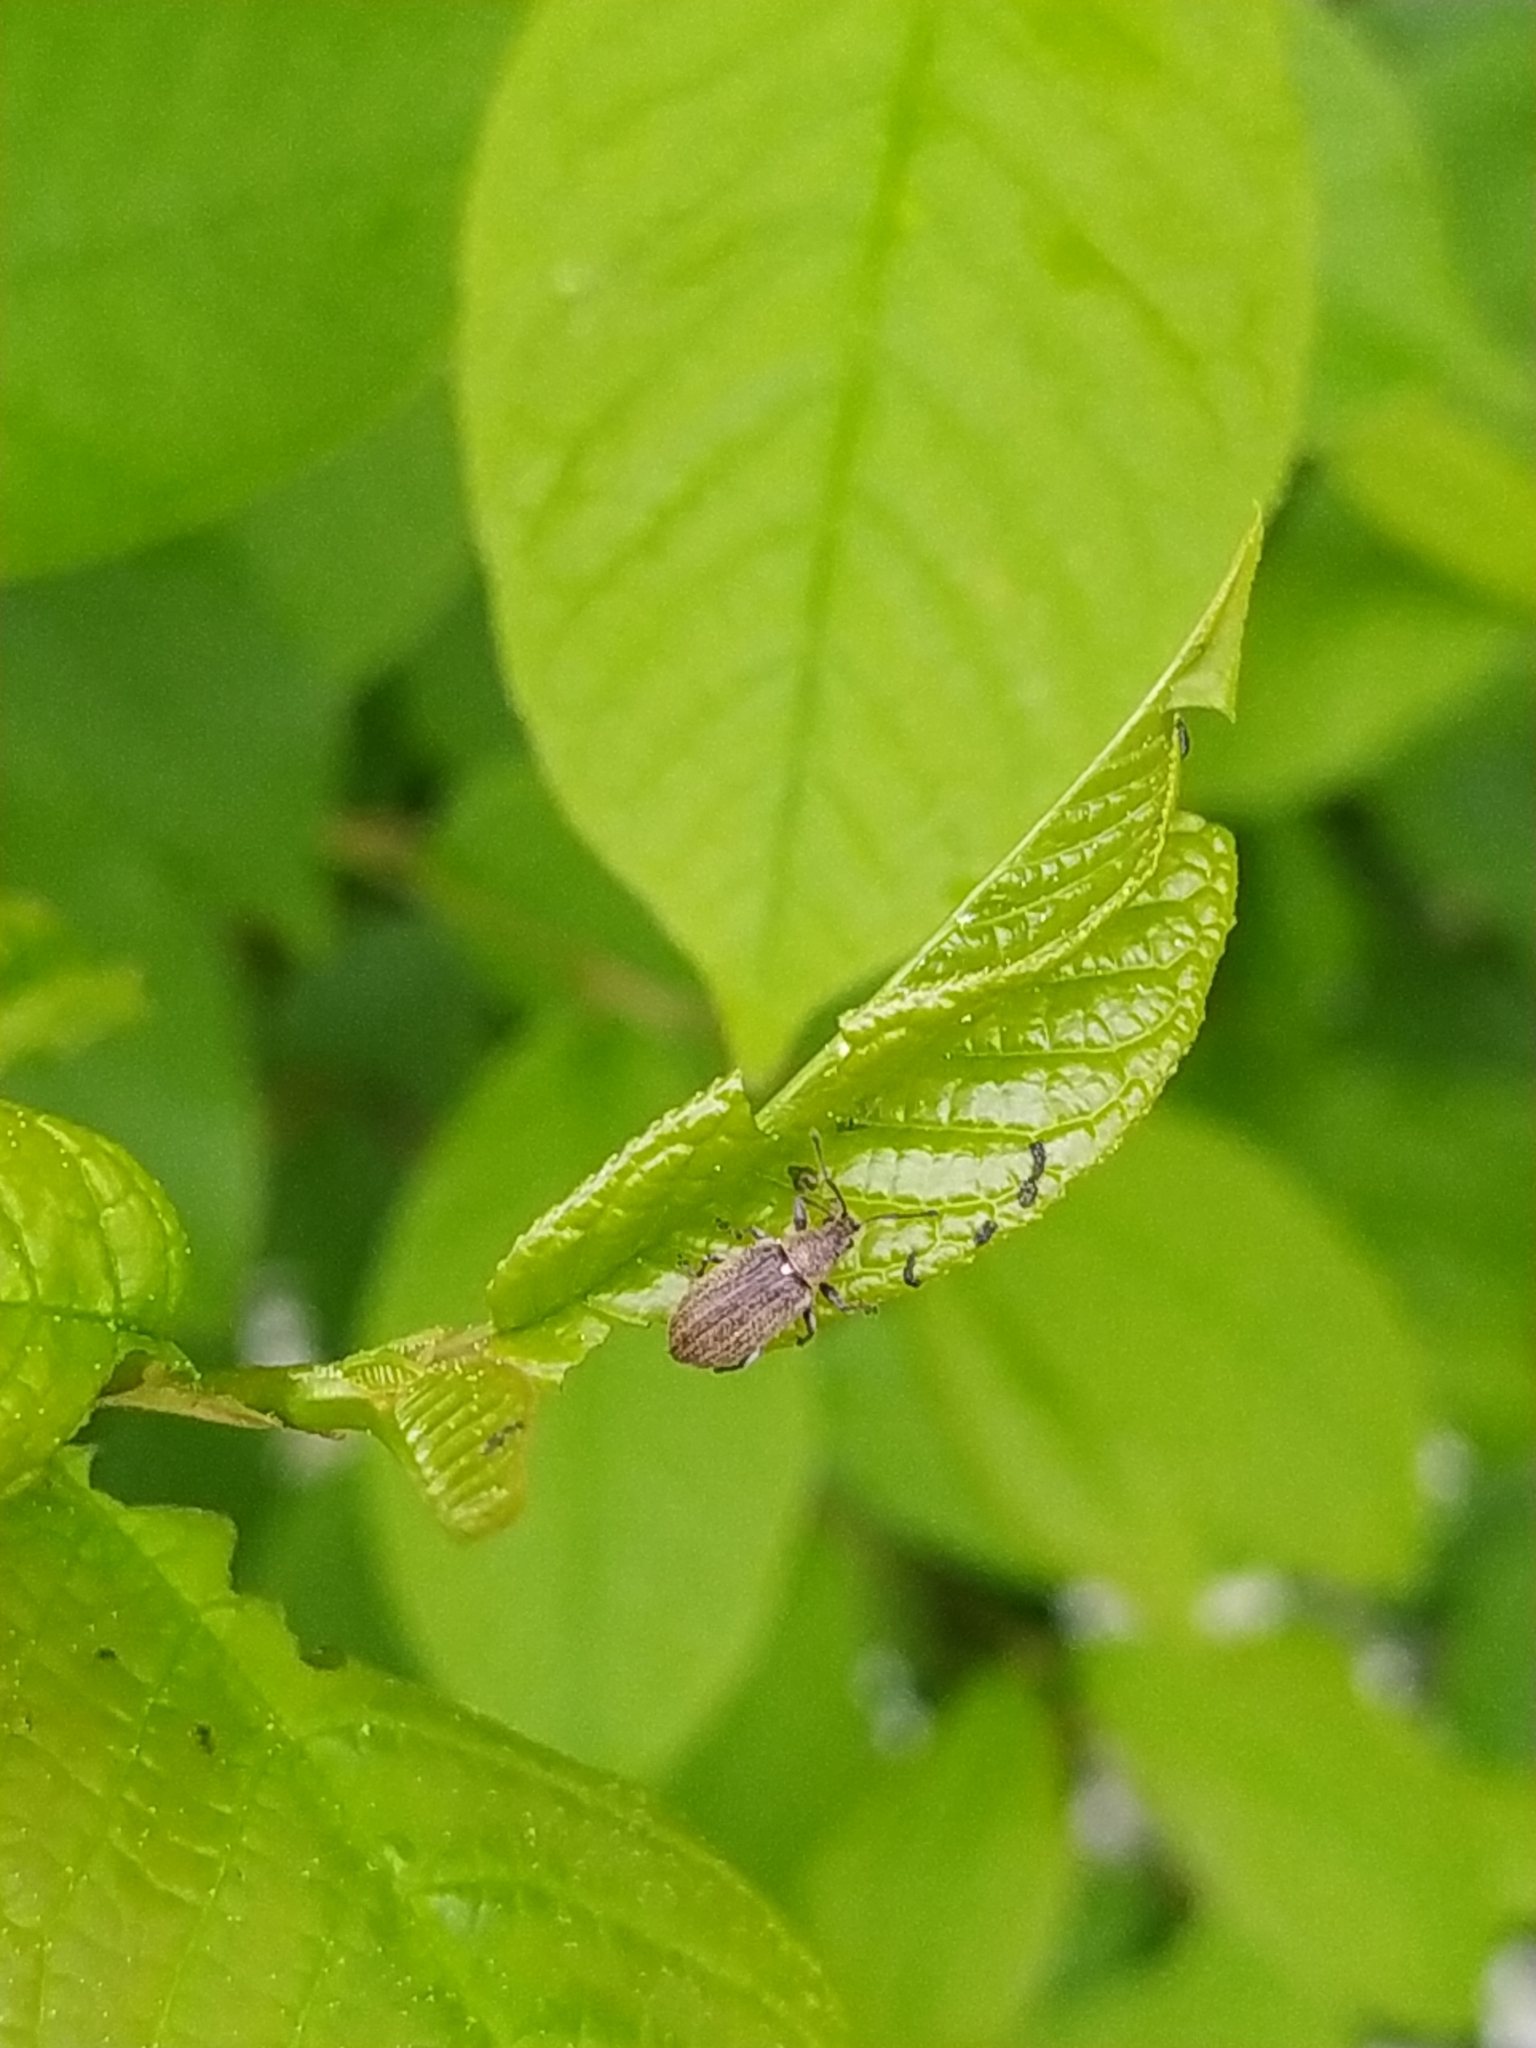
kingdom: Animalia
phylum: Arthropoda
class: Insecta
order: Coleoptera
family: Curculionidae
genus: Phyllobius
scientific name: Phyllobius pyri
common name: Common leaf weevil
